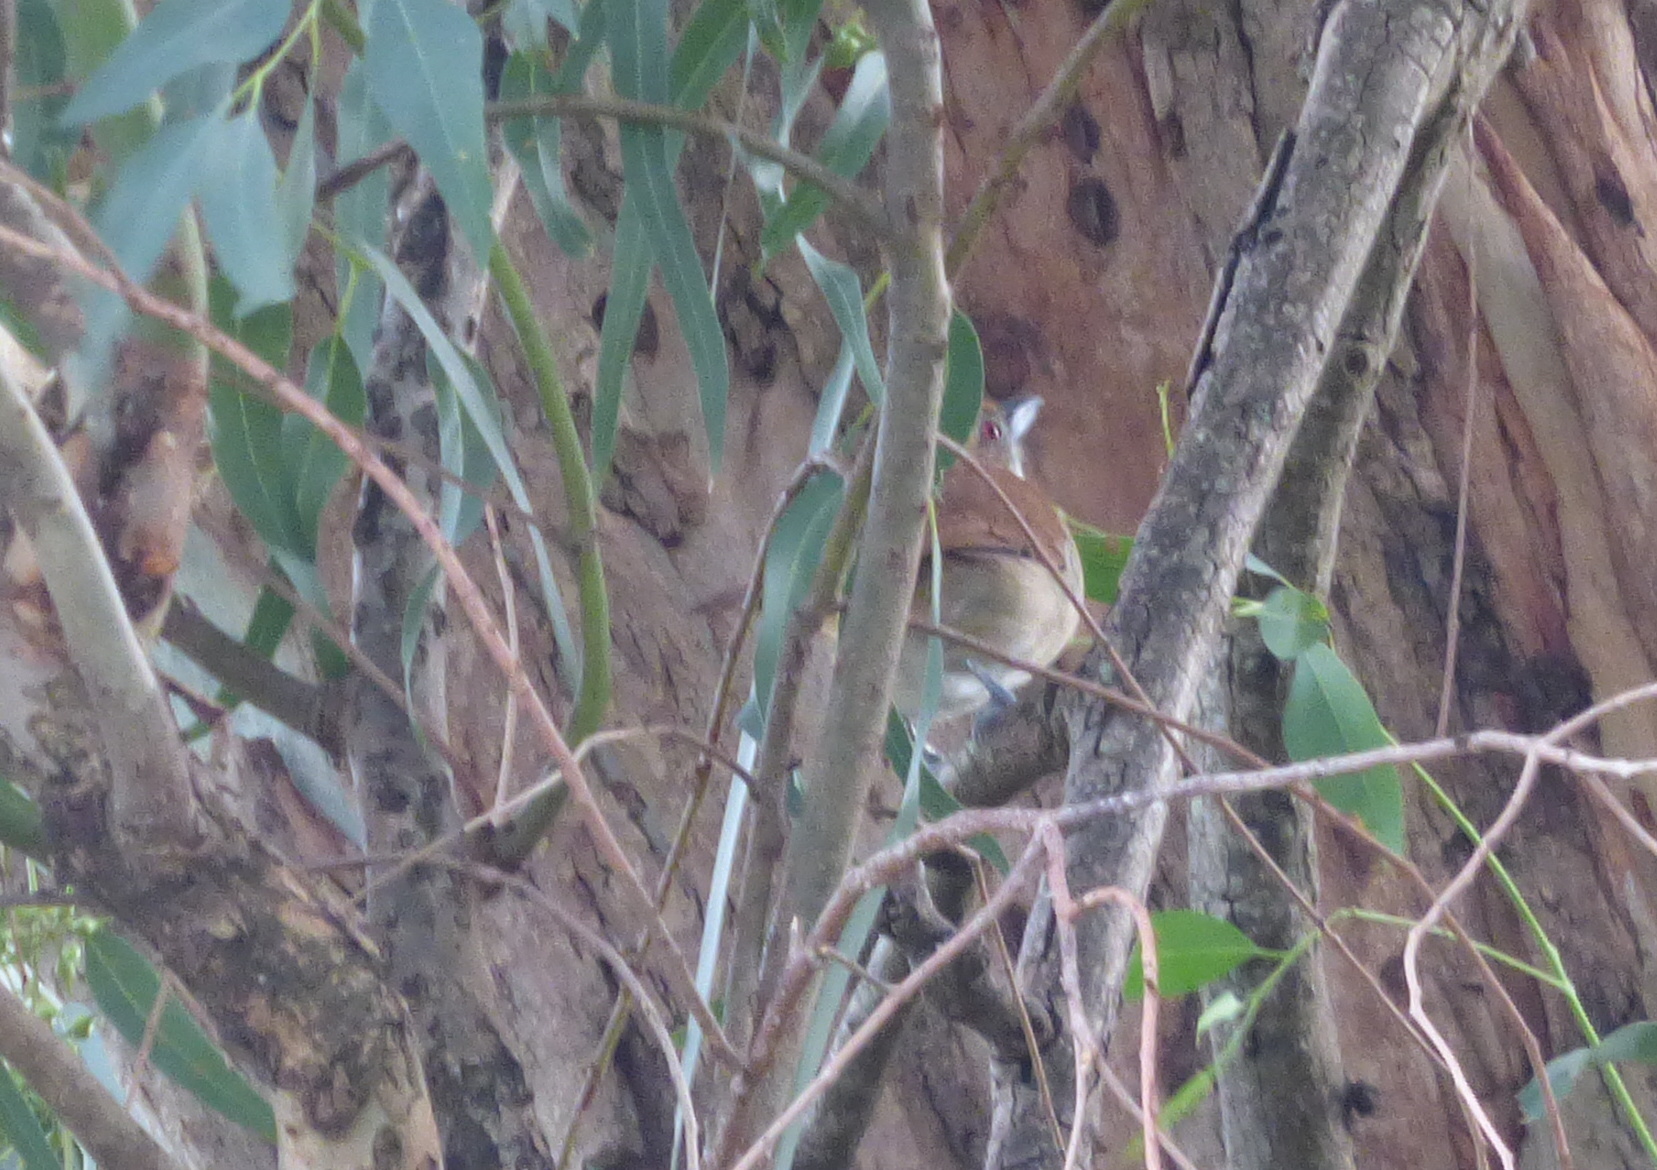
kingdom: Animalia
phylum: Chordata
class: Aves
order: Passeriformes
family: Thamnophilidae
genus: Taraba
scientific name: Taraba major
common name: Great antshrike
